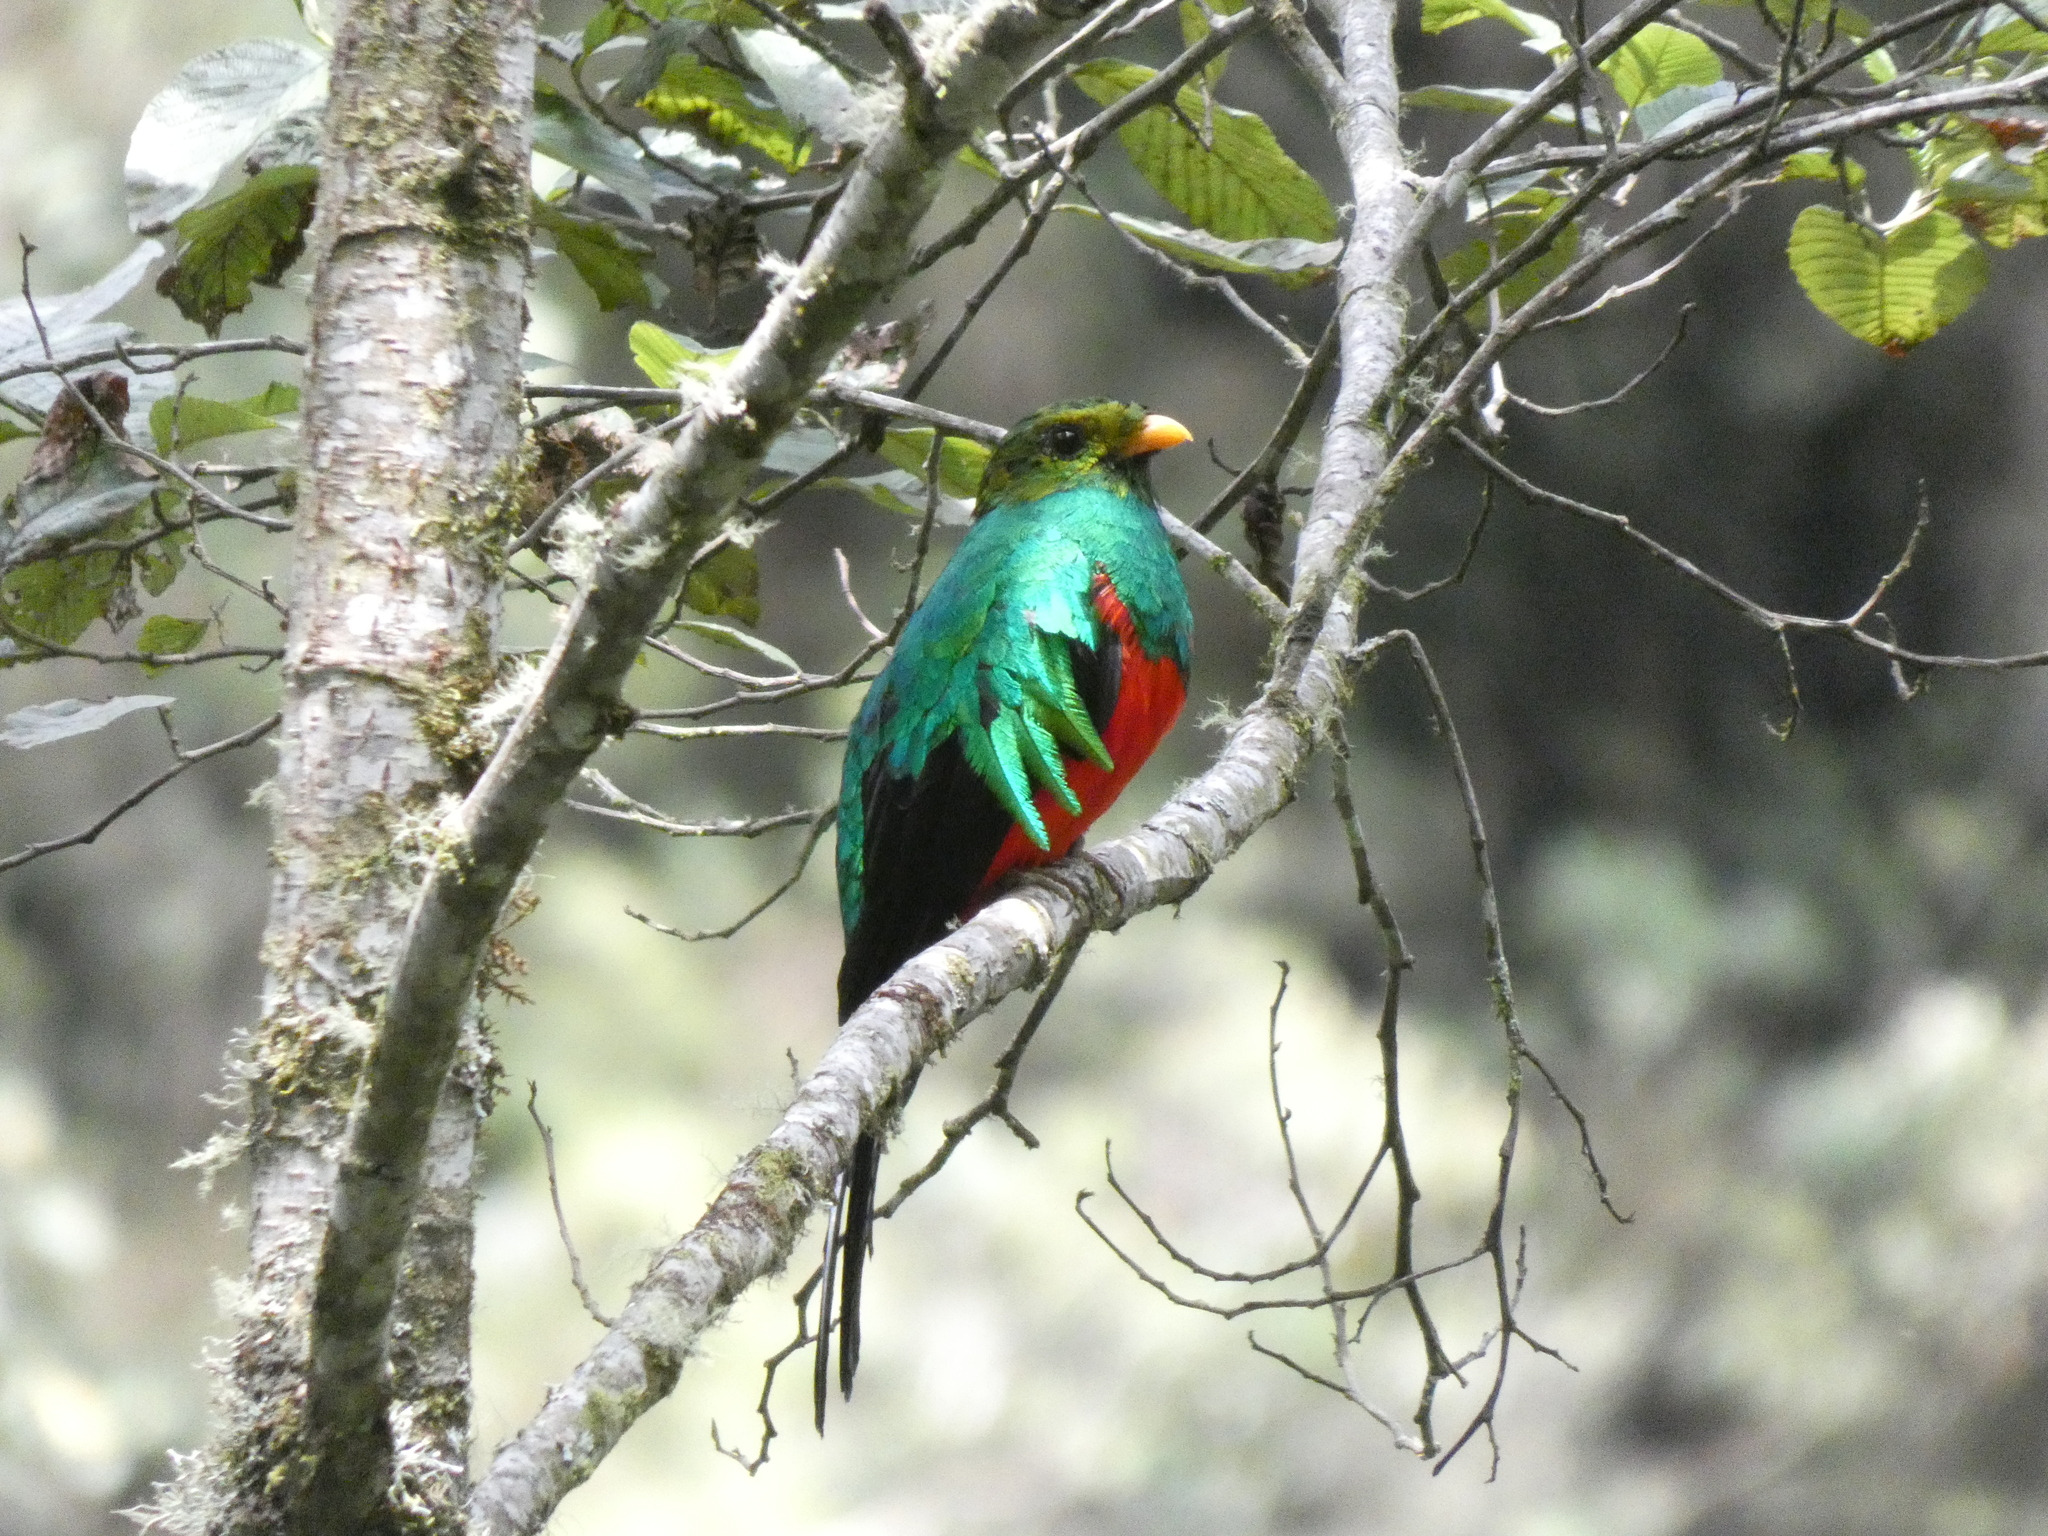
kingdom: Animalia
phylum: Chordata
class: Aves
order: Trogoniformes
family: Trogonidae
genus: Pharomachrus
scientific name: Pharomachrus auriceps
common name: Golden-headed quetzal
